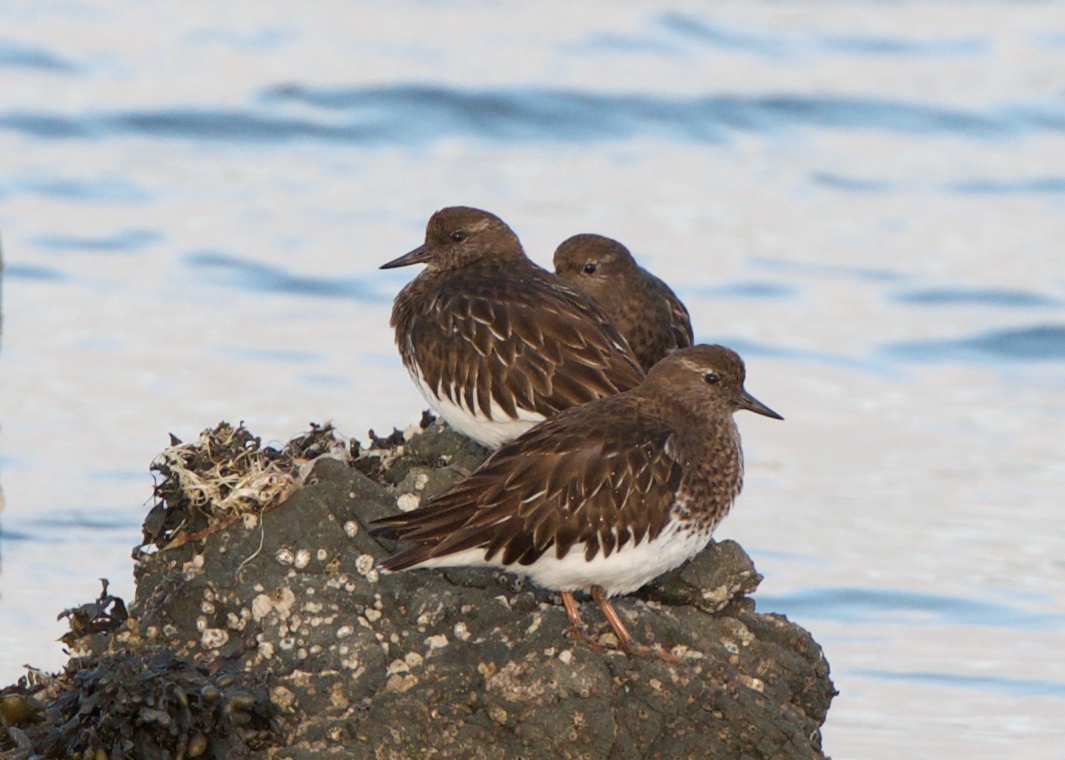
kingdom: Animalia
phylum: Chordata
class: Aves
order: Charadriiformes
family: Scolopacidae
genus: Arenaria
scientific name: Arenaria melanocephala
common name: Black turnstone
